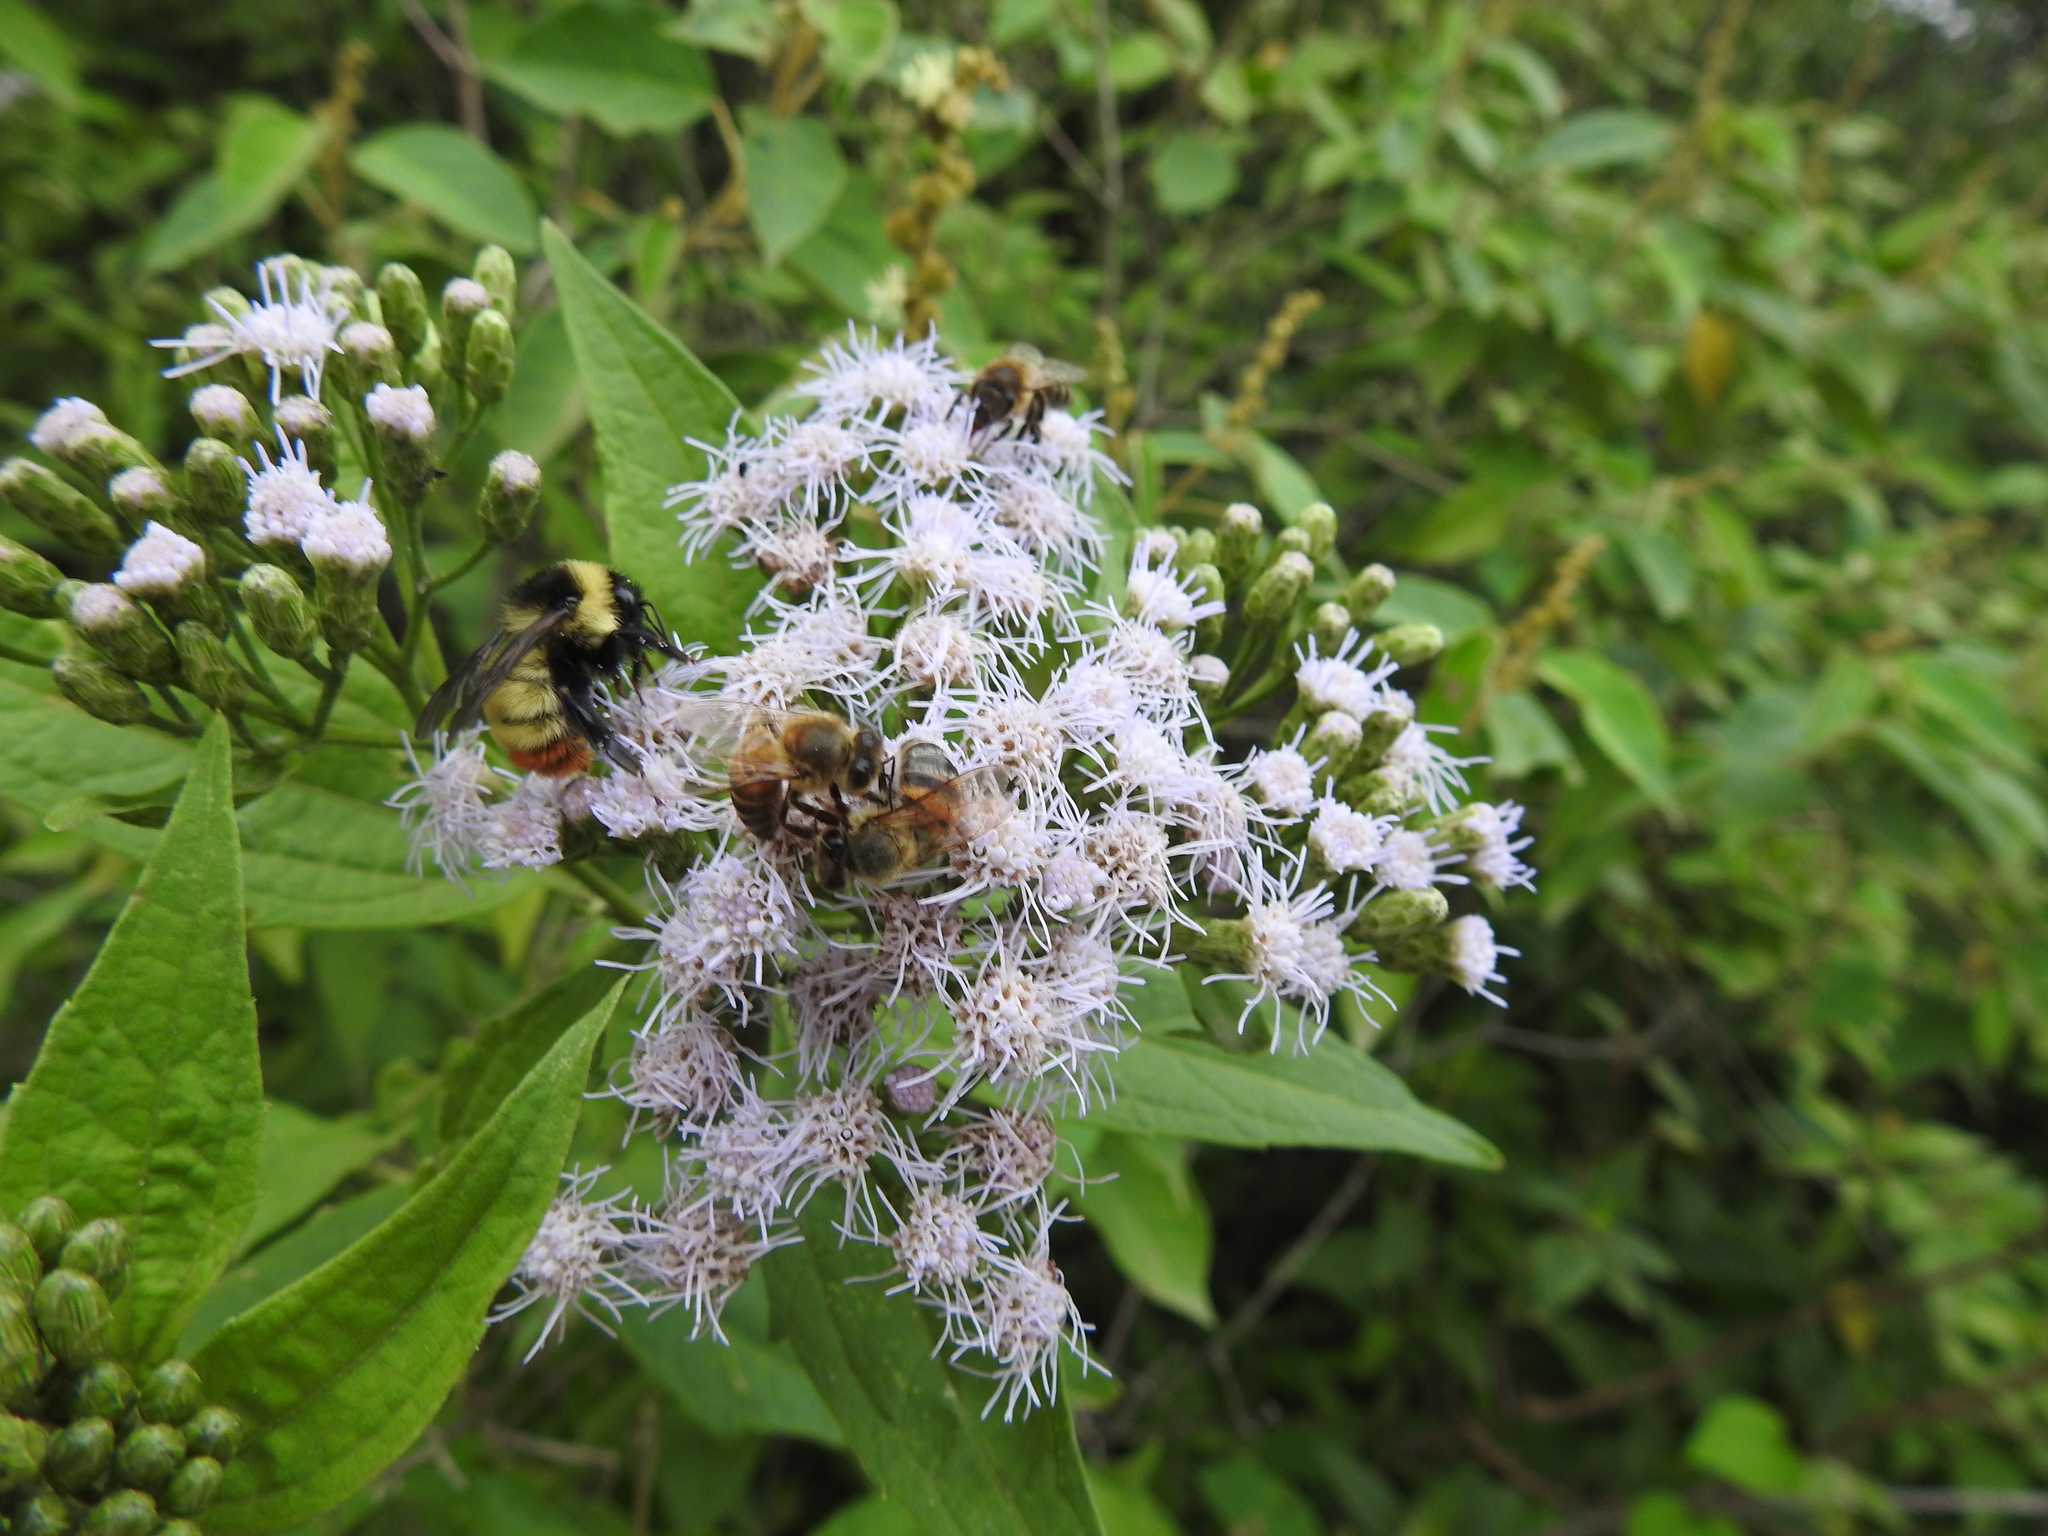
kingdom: Animalia
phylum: Arthropoda
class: Insecta
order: Hymenoptera
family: Apidae
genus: Bombus
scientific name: Bombus opifex
